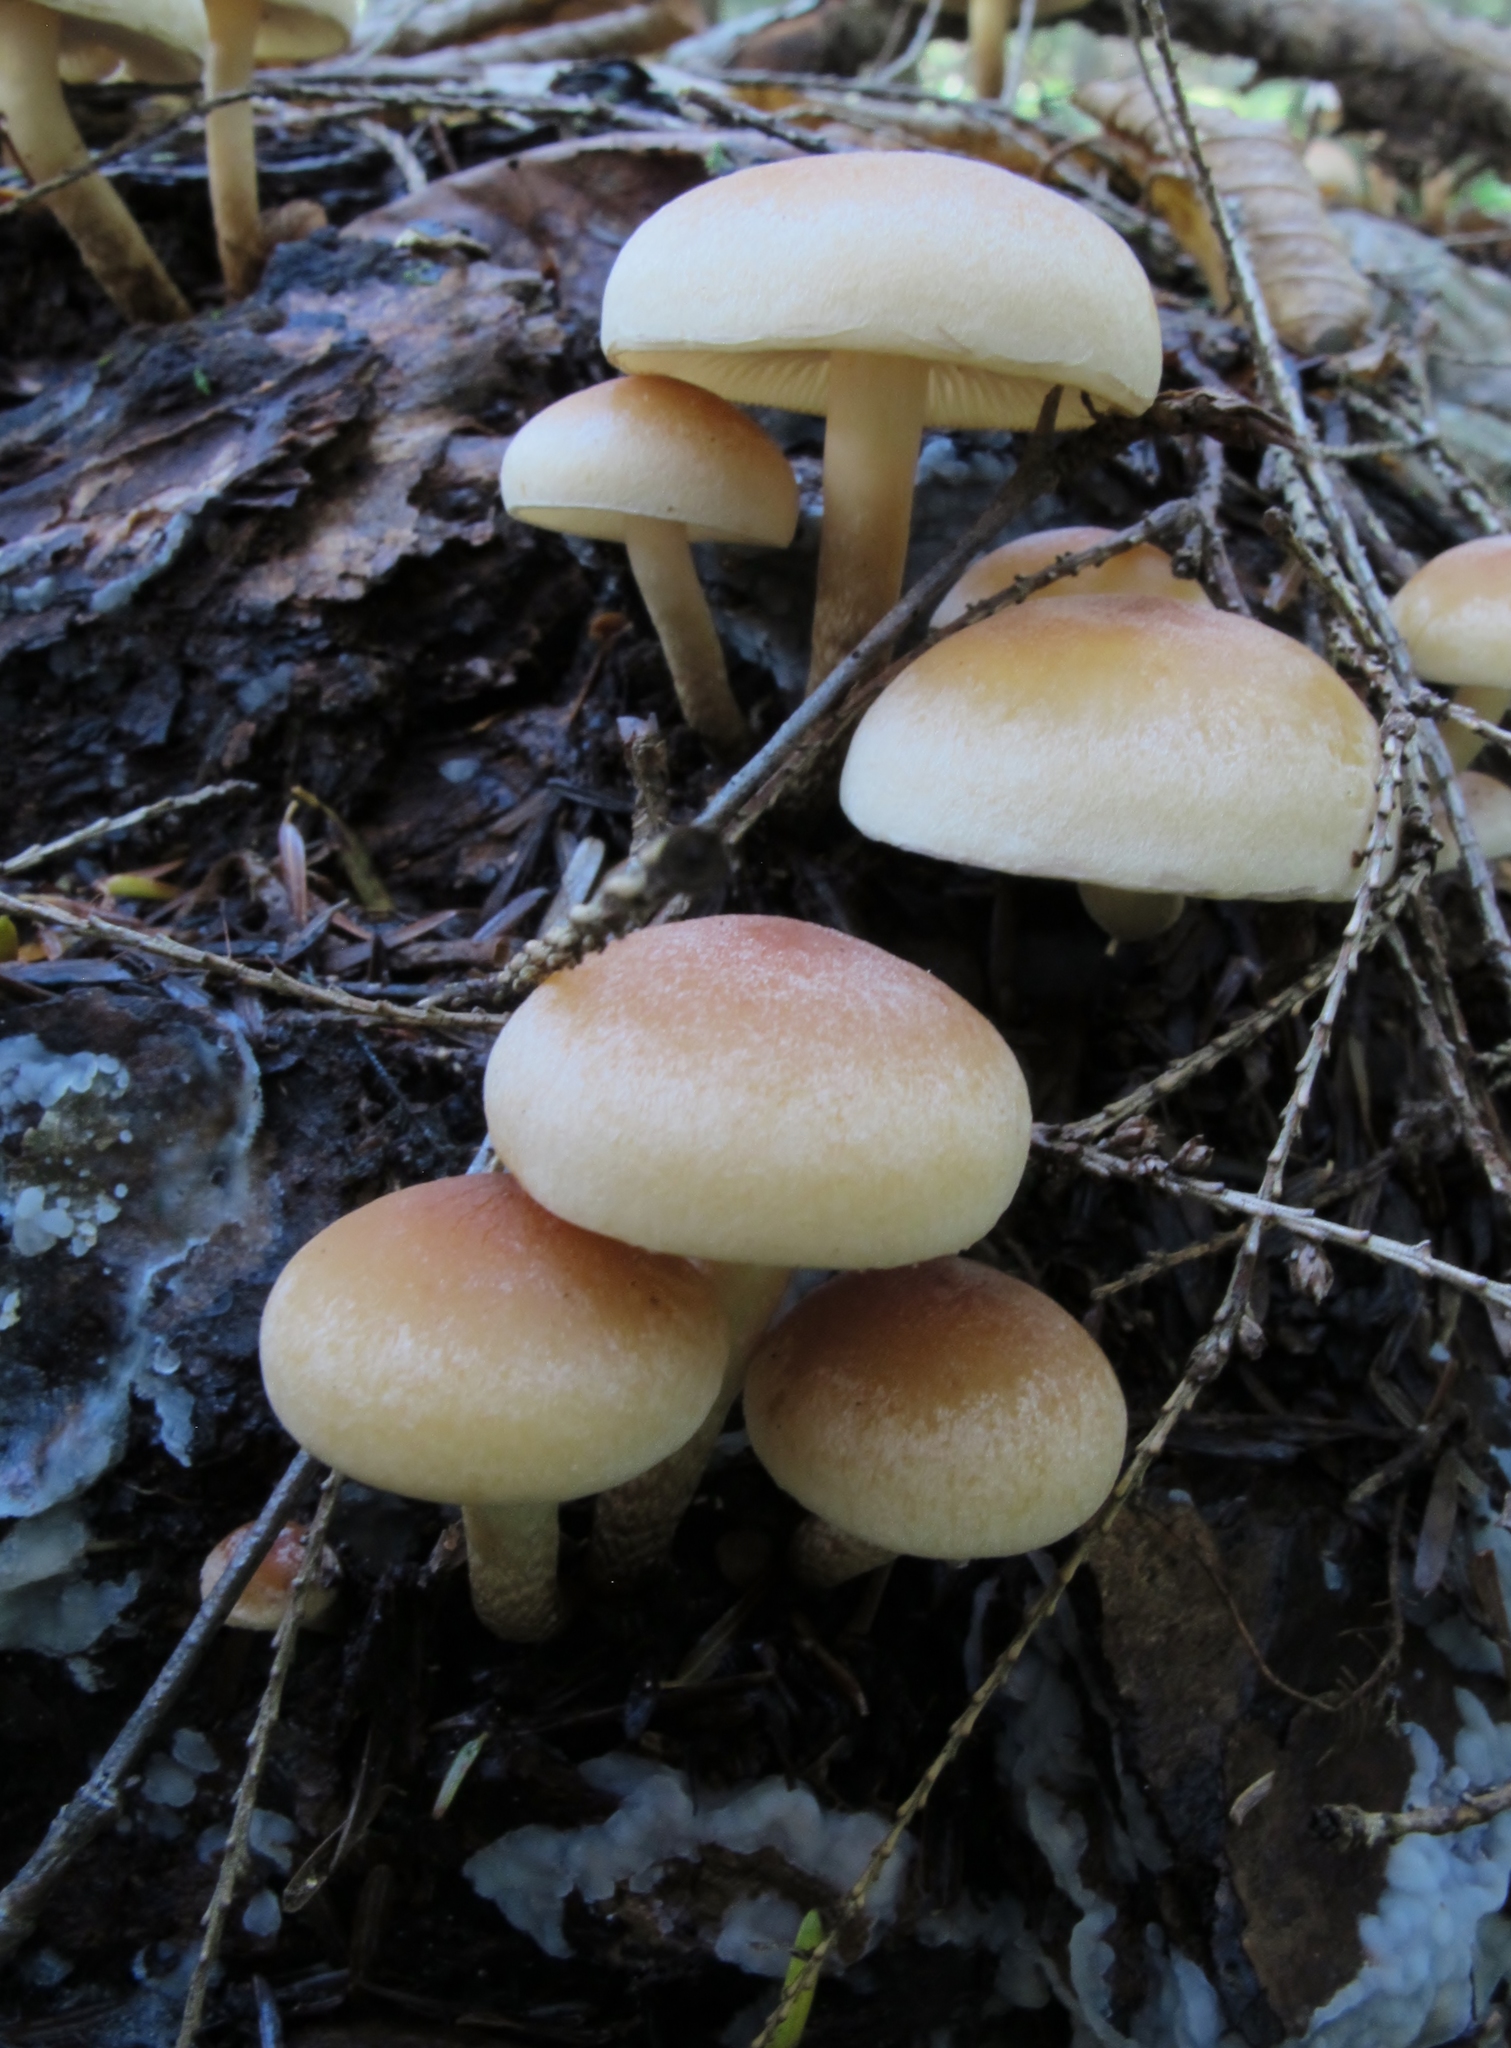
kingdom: Fungi
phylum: Basidiomycota
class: Agaricomycetes
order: Agaricales
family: Strophariaceae
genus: Hypholoma
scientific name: Hypholoma capnoides
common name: Conifer tuft
